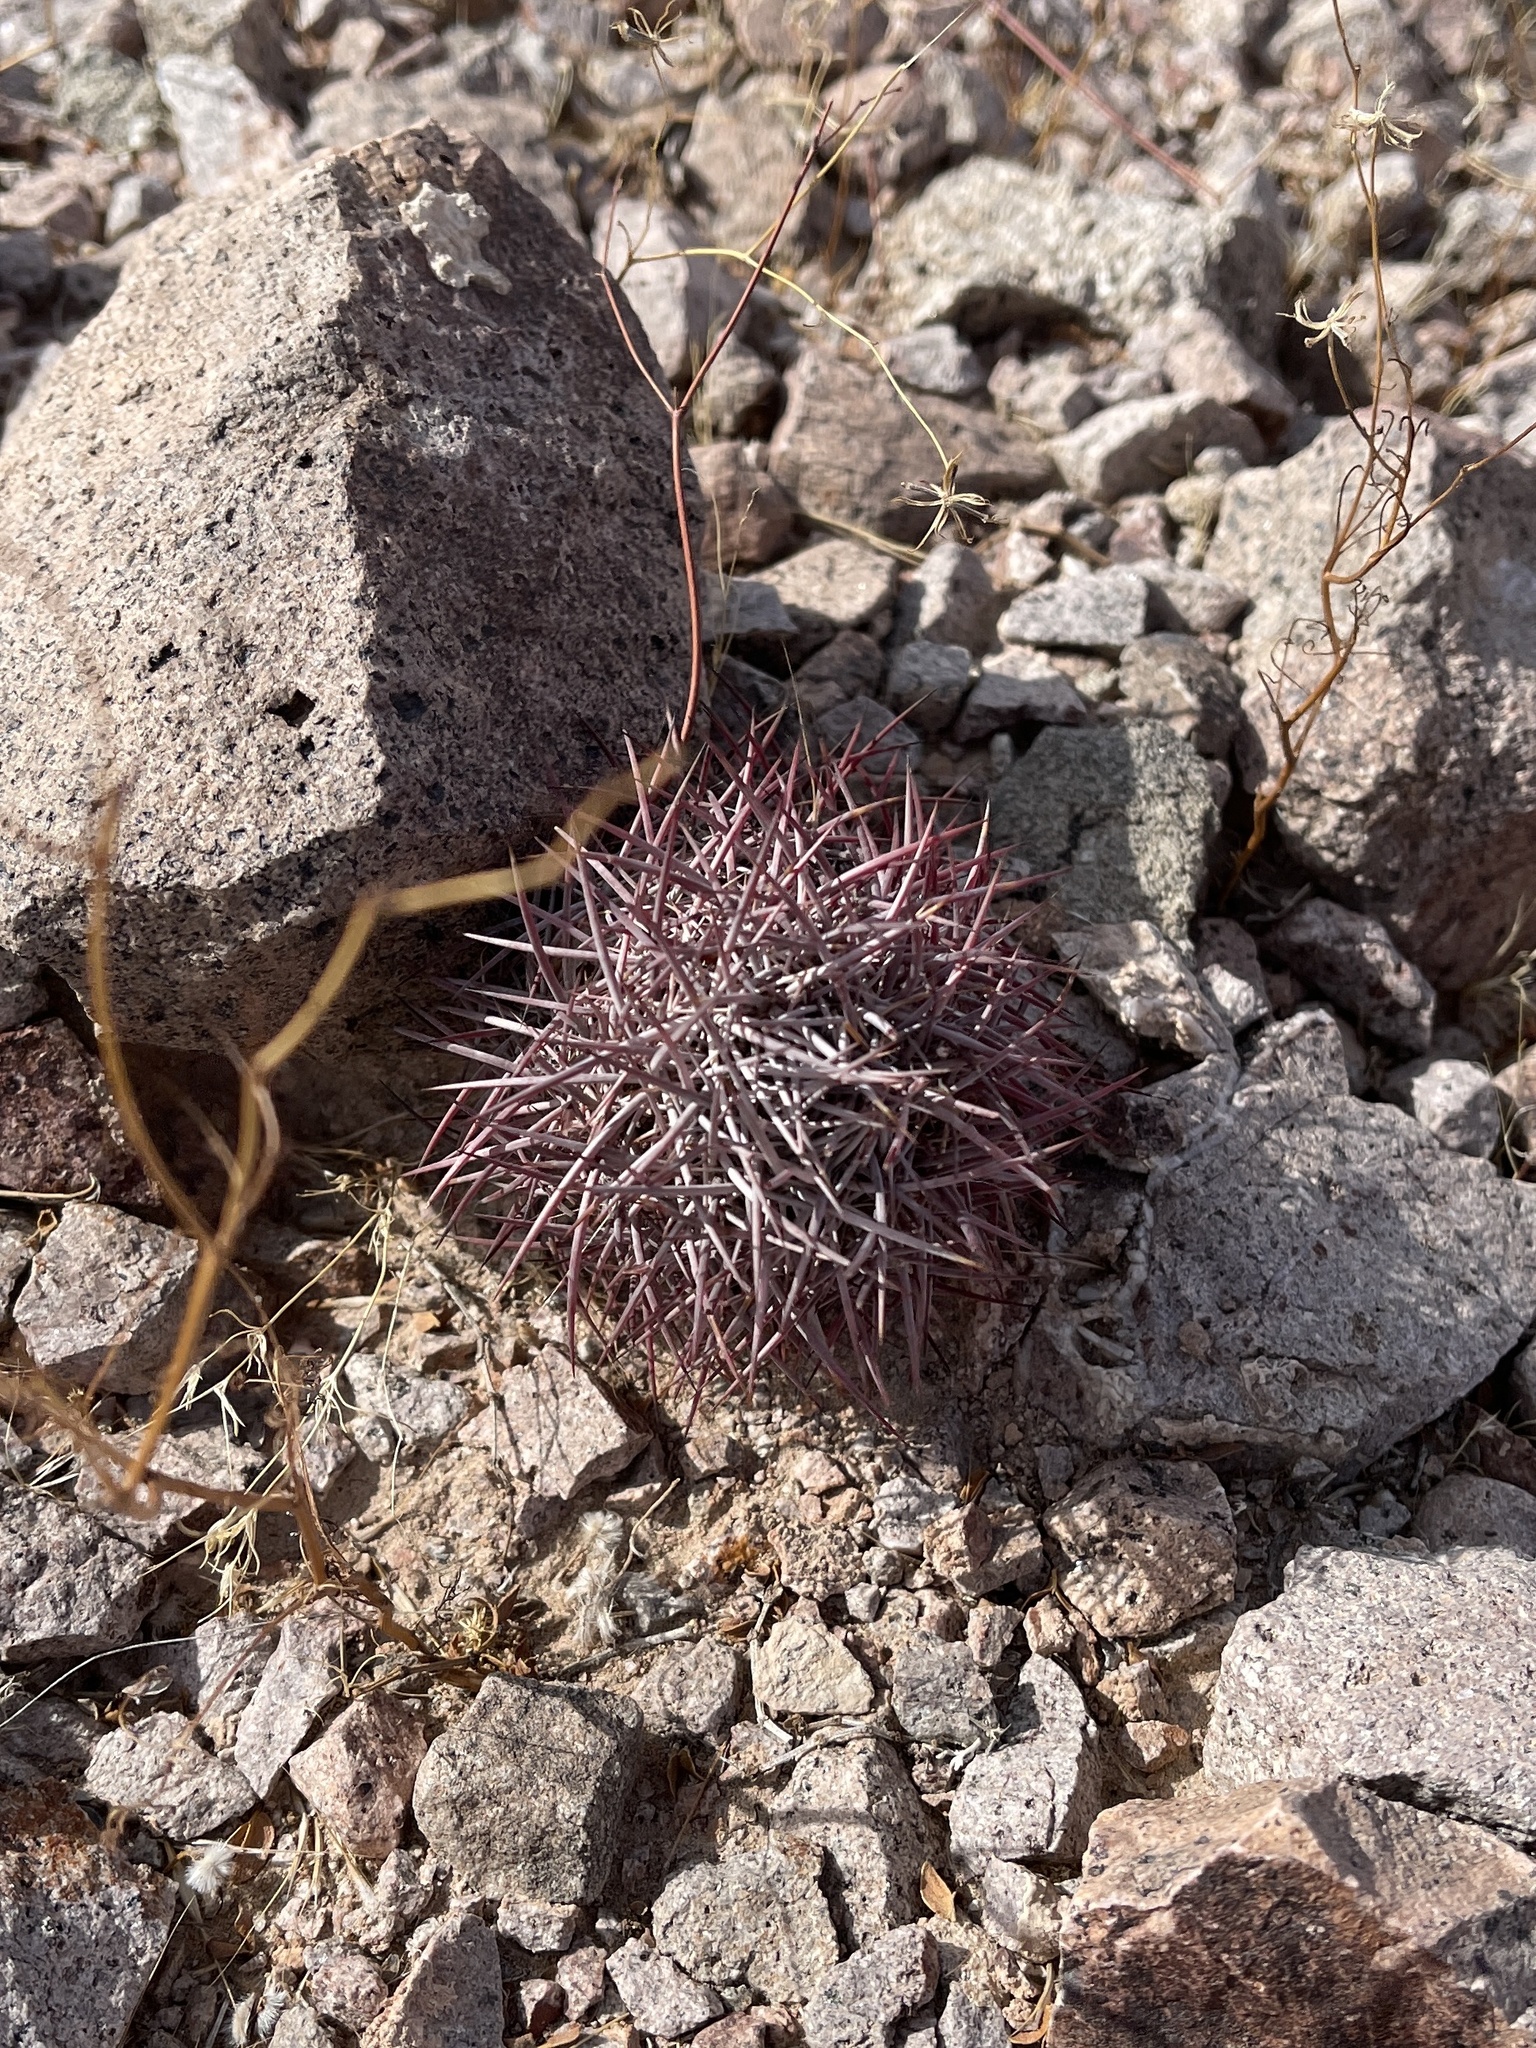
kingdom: Plantae
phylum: Tracheophyta
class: Magnoliopsida
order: Caryophyllales
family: Cactaceae
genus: Sclerocactus
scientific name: Sclerocactus johnsonii
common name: Eight-spine fishhook cactus
